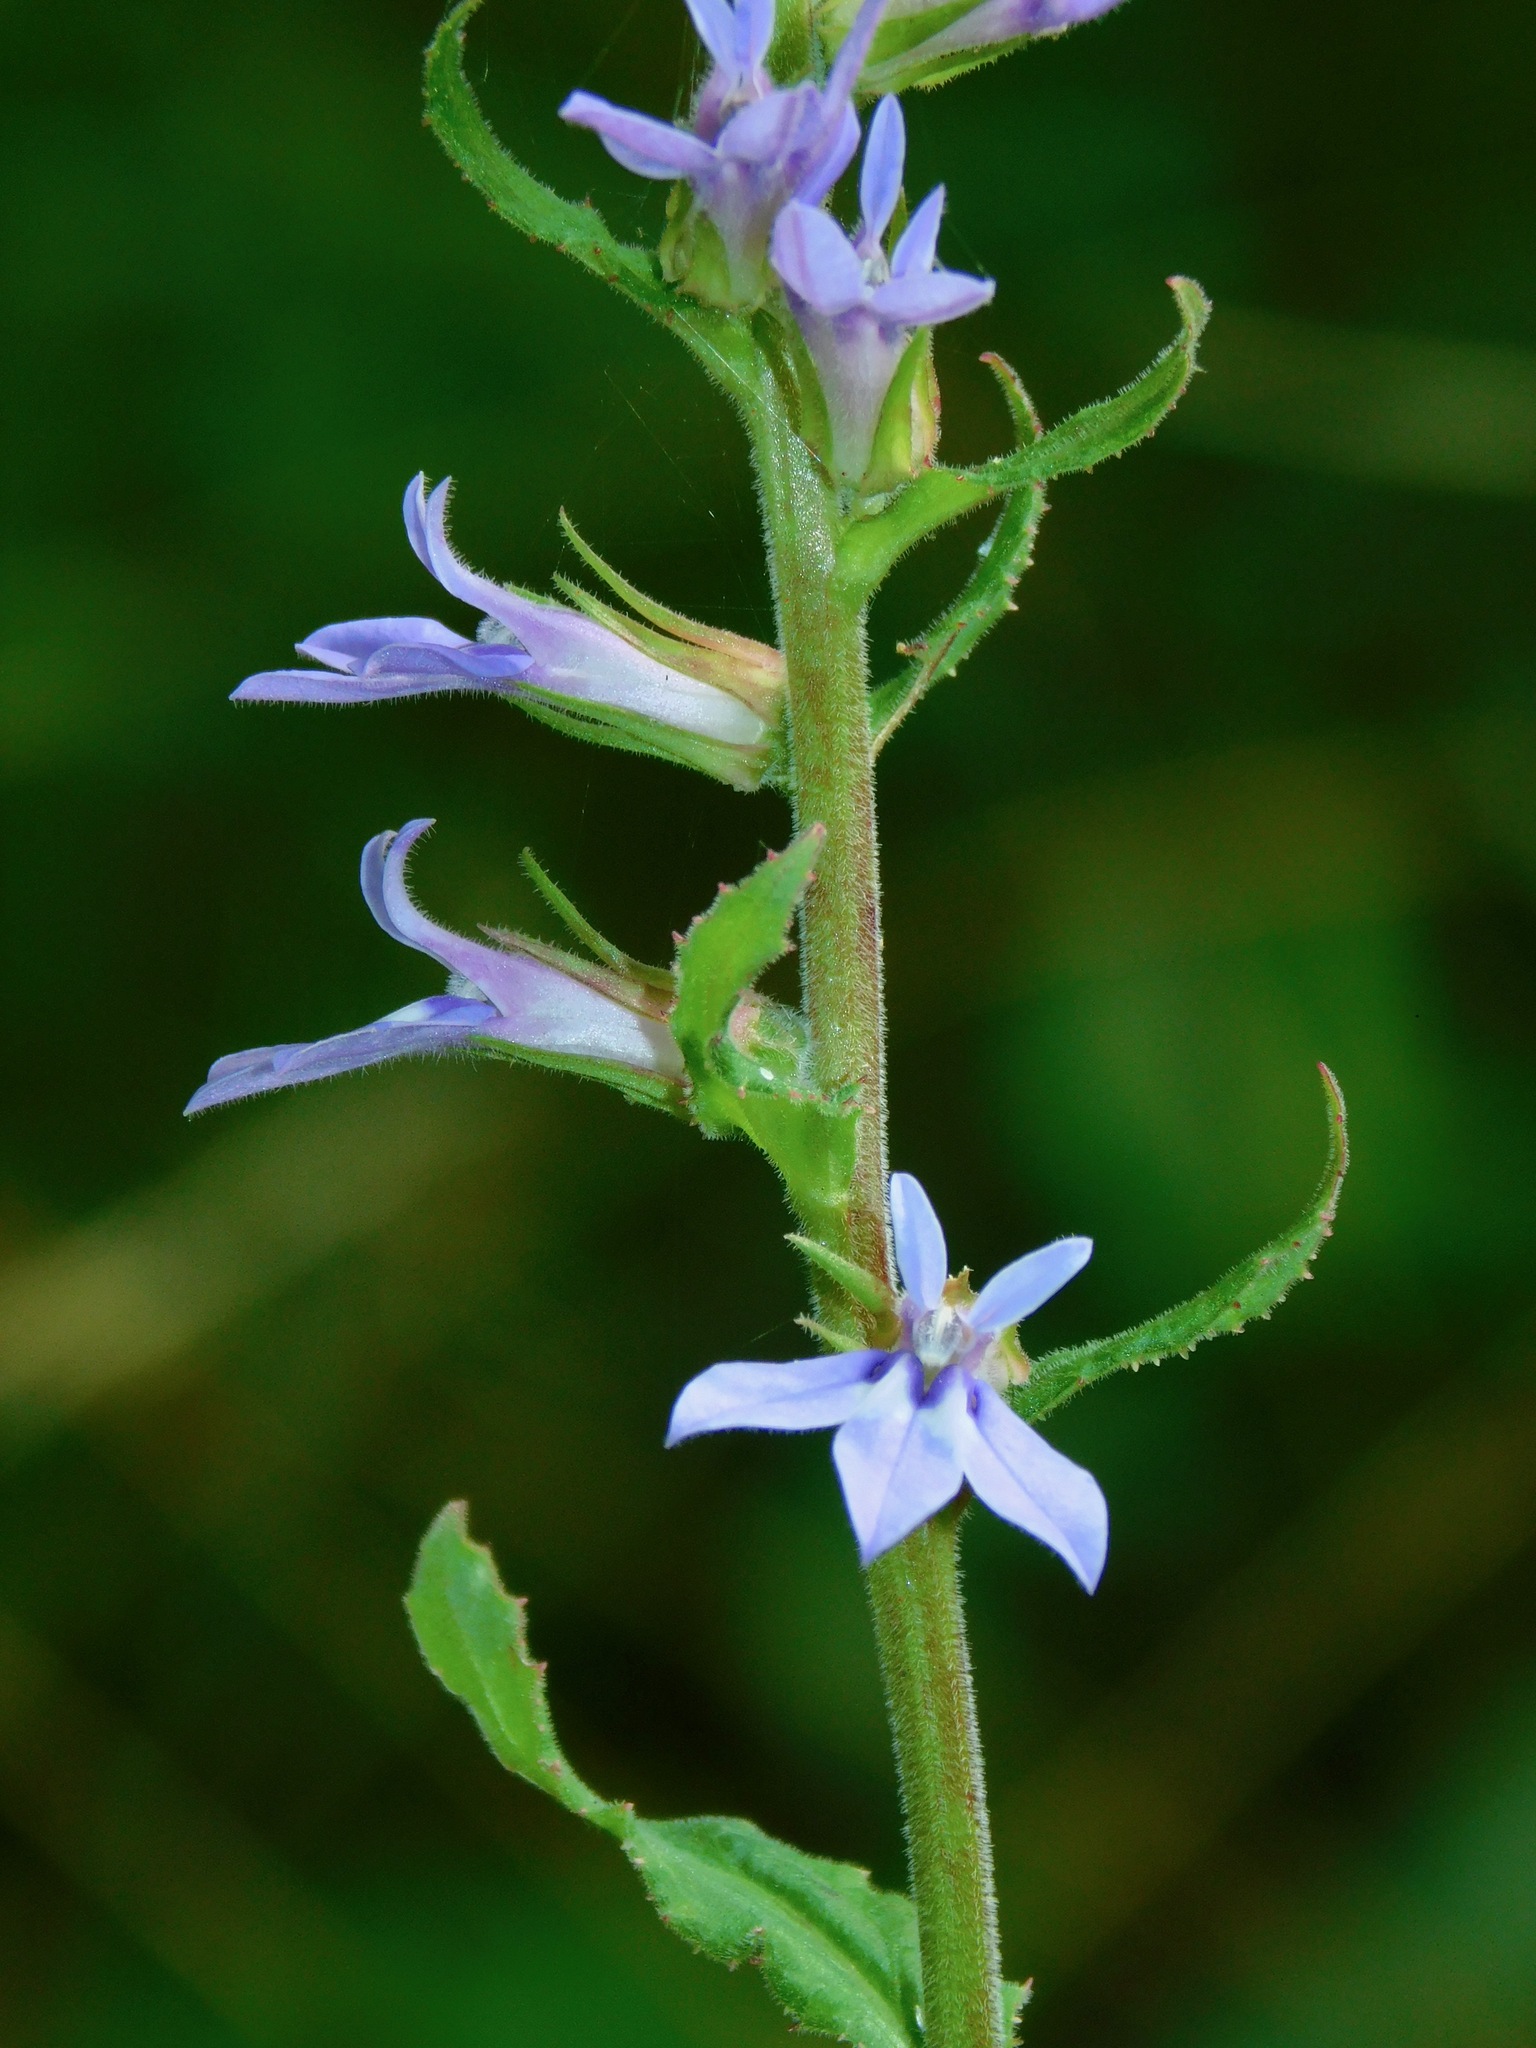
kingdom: Plantae
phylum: Tracheophyta
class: Magnoliopsida
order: Asterales
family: Campanulaceae
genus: Lobelia
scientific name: Lobelia puberula
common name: Purple dewdrop
